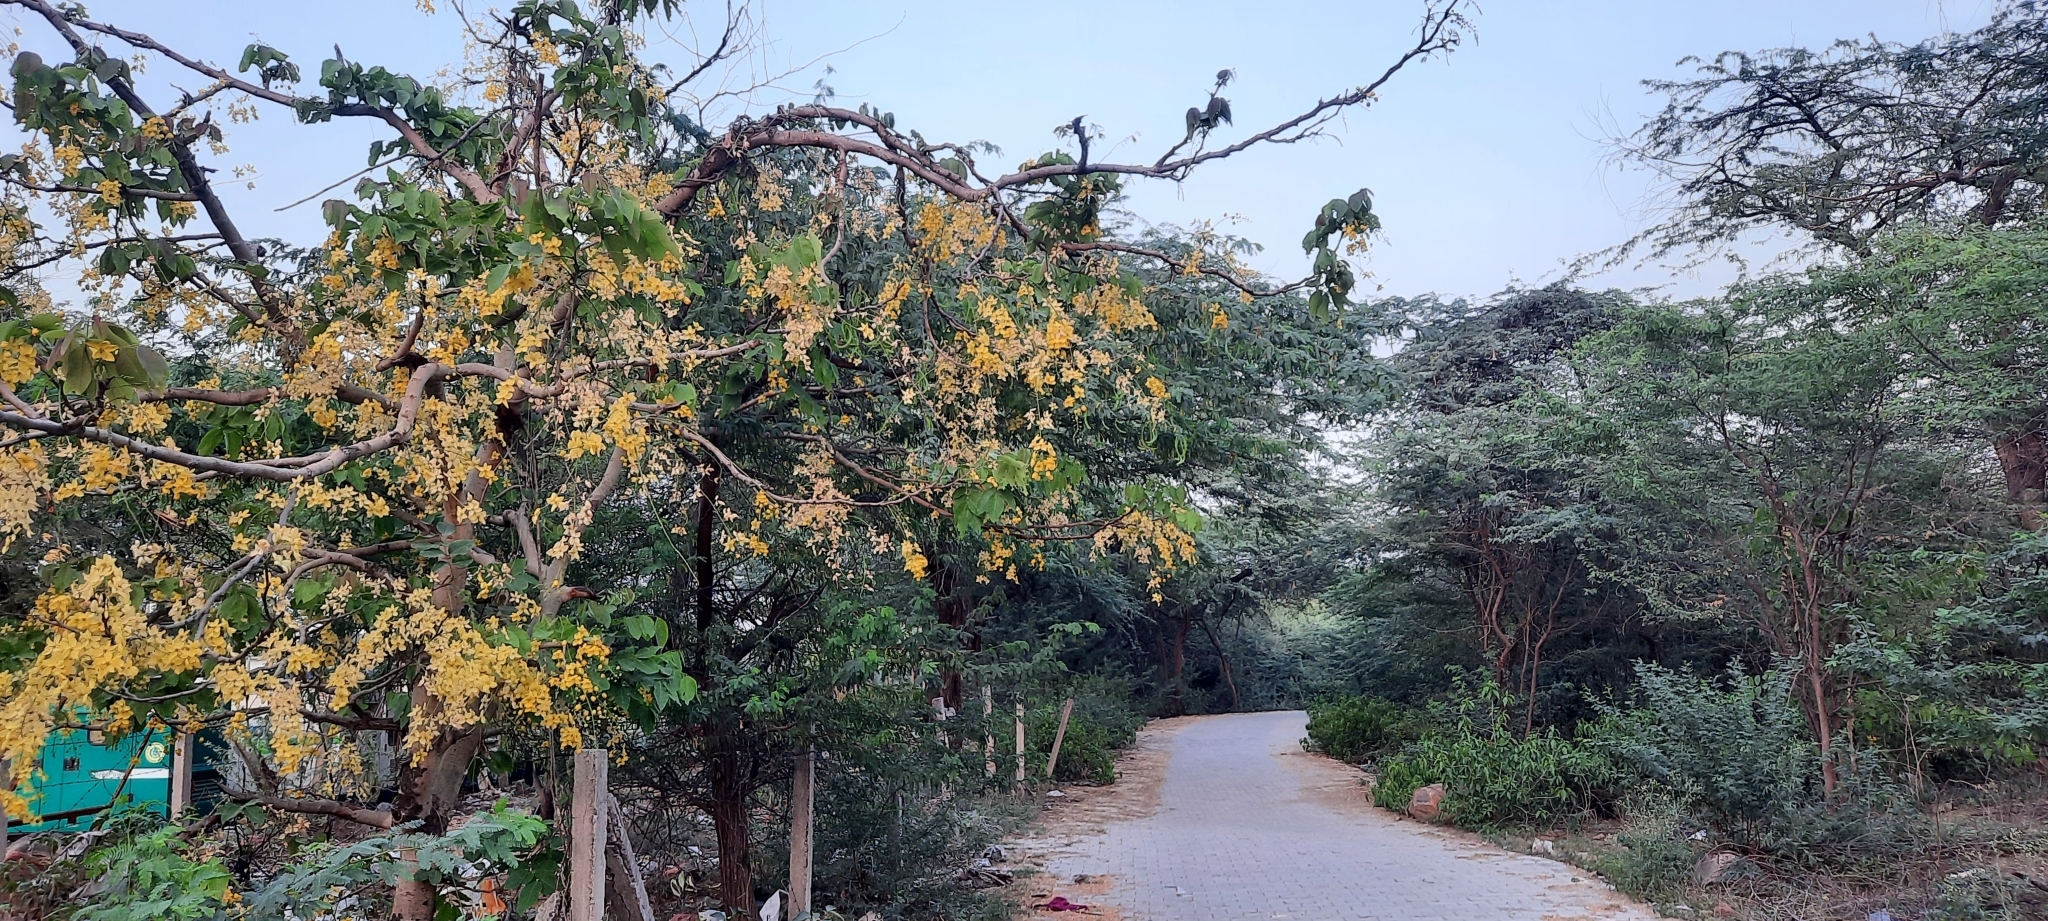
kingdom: Plantae
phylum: Tracheophyta
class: Magnoliopsida
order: Fabales
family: Fabaceae
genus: Cassia
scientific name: Cassia fistula
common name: Golden shower
